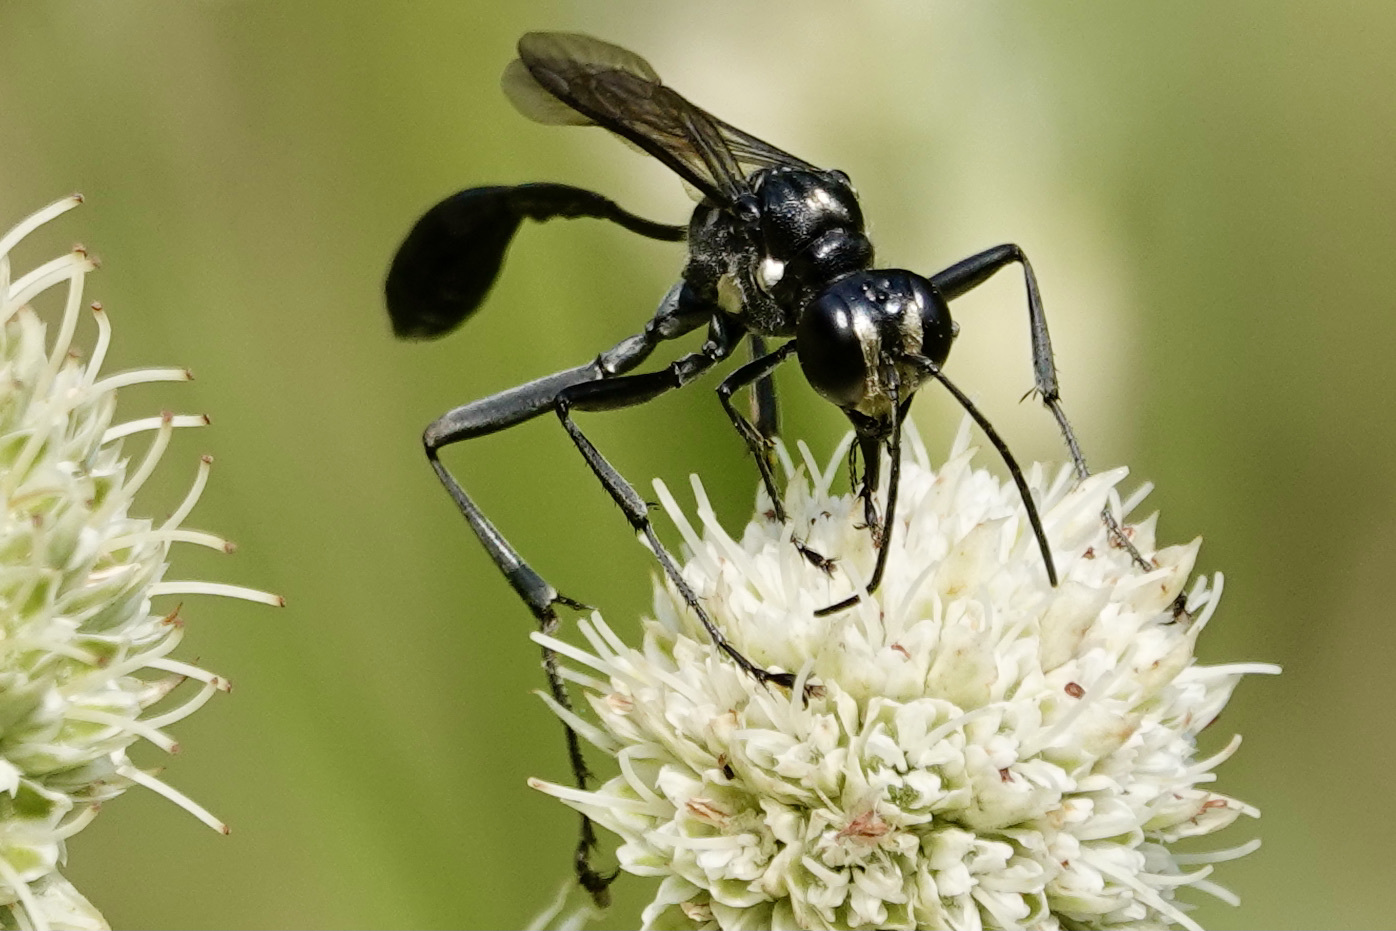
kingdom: Animalia
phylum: Arthropoda
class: Insecta
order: Hymenoptera
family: Sphecidae
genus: Eremnophila
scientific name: Eremnophila aureonotata
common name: Gold-marked thread-waisted wasp
